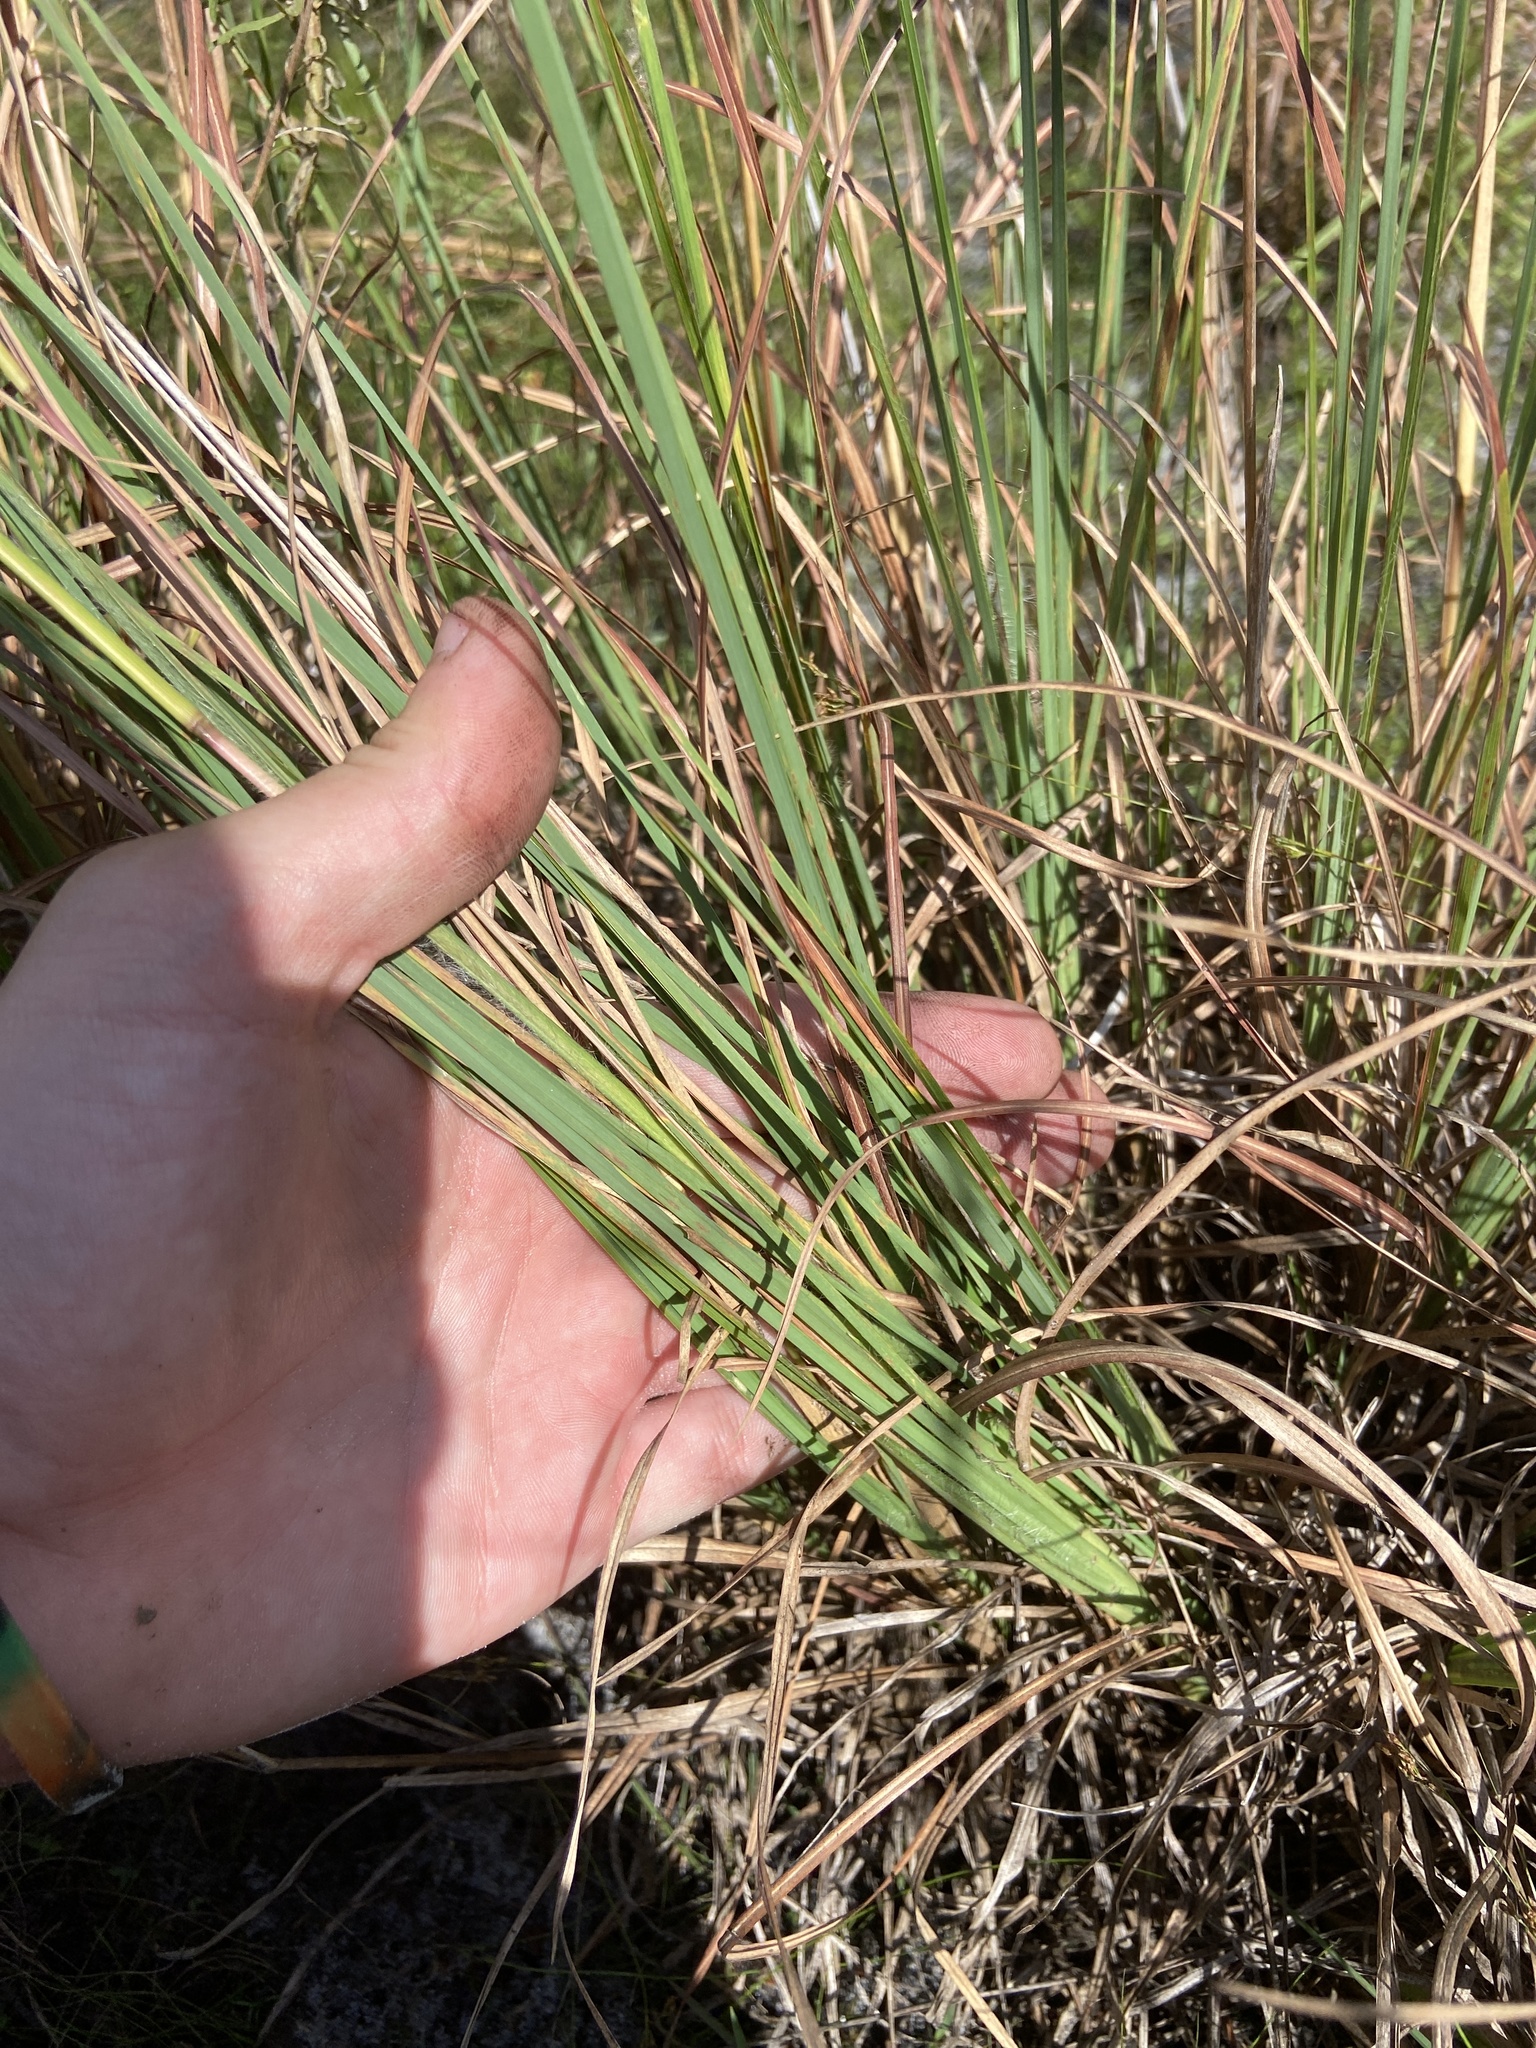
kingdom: Plantae
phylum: Tracheophyta
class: Liliopsida
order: Poales
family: Poaceae
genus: Andropogon
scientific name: Andropogon virginicus
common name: Broomsedge bluestem
